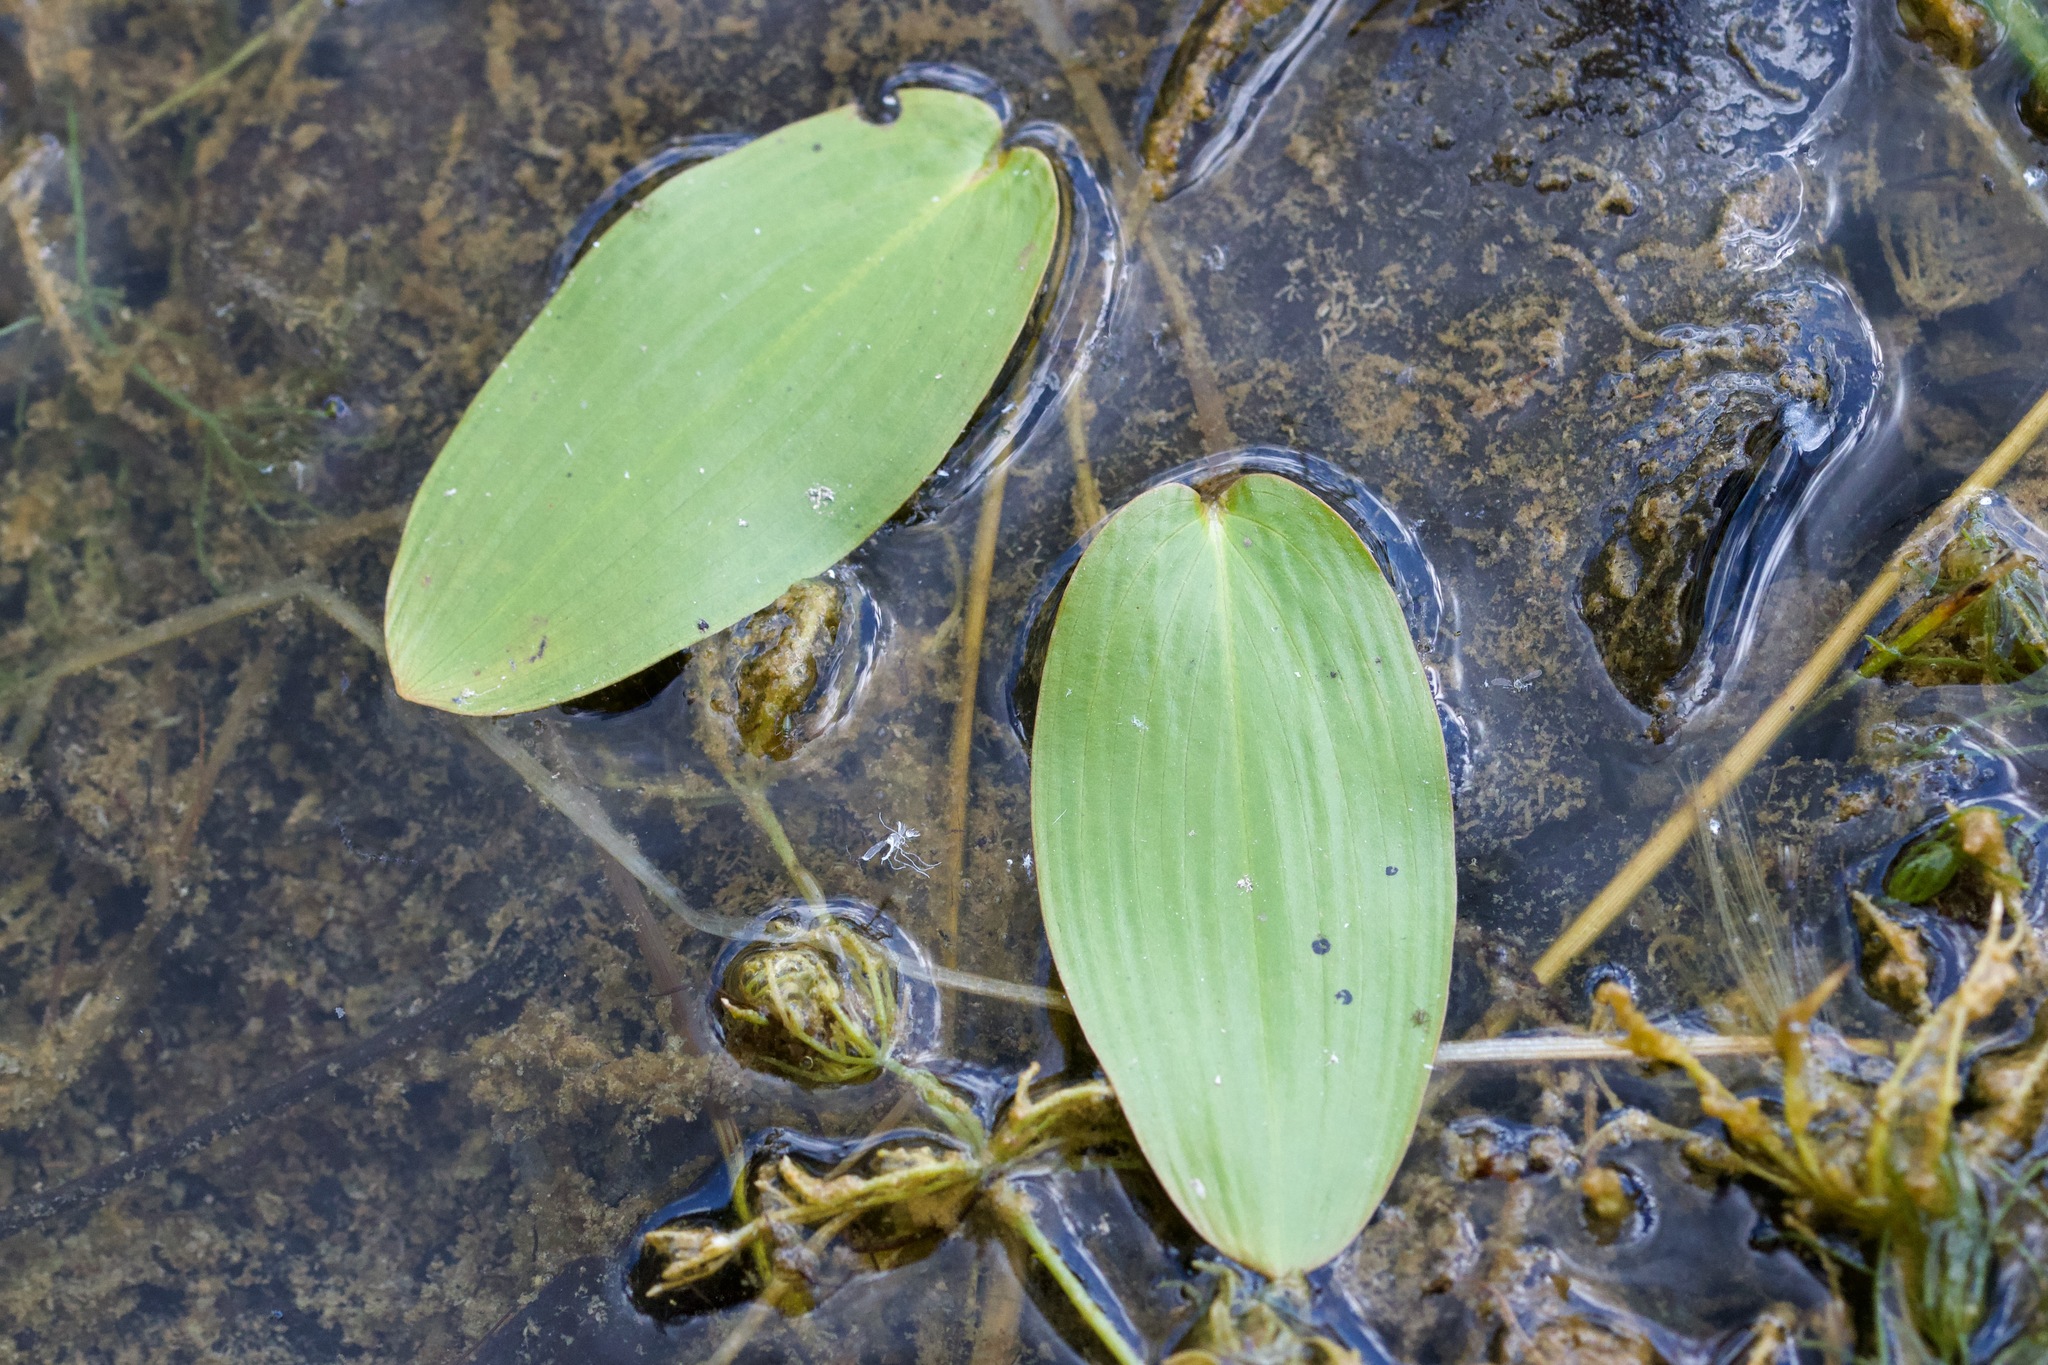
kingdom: Plantae
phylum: Tracheophyta
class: Liliopsida
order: Alismatales
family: Potamogetonaceae
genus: Potamogeton
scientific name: Potamogeton natans
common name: Broad-leaved pondweed
